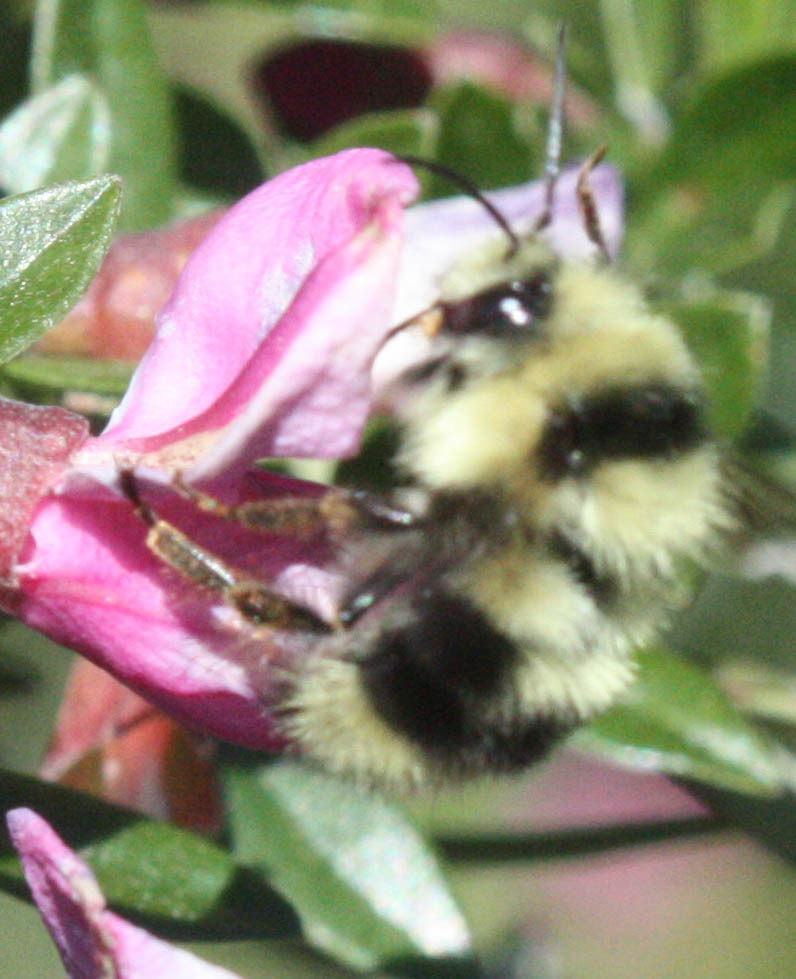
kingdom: Animalia
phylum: Arthropoda
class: Insecta
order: Hymenoptera
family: Apidae
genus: Bombus
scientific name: Bombus melanopygus
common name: Black tail bumble bee
